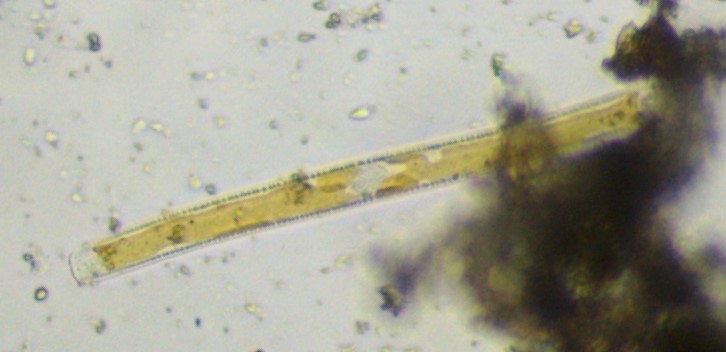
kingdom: Chromista
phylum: Ochrophyta
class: Bacillariophyceae
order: Bacillariales
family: Bacillariaceae
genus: Nitzschia
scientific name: Nitzschia sigmoidea
